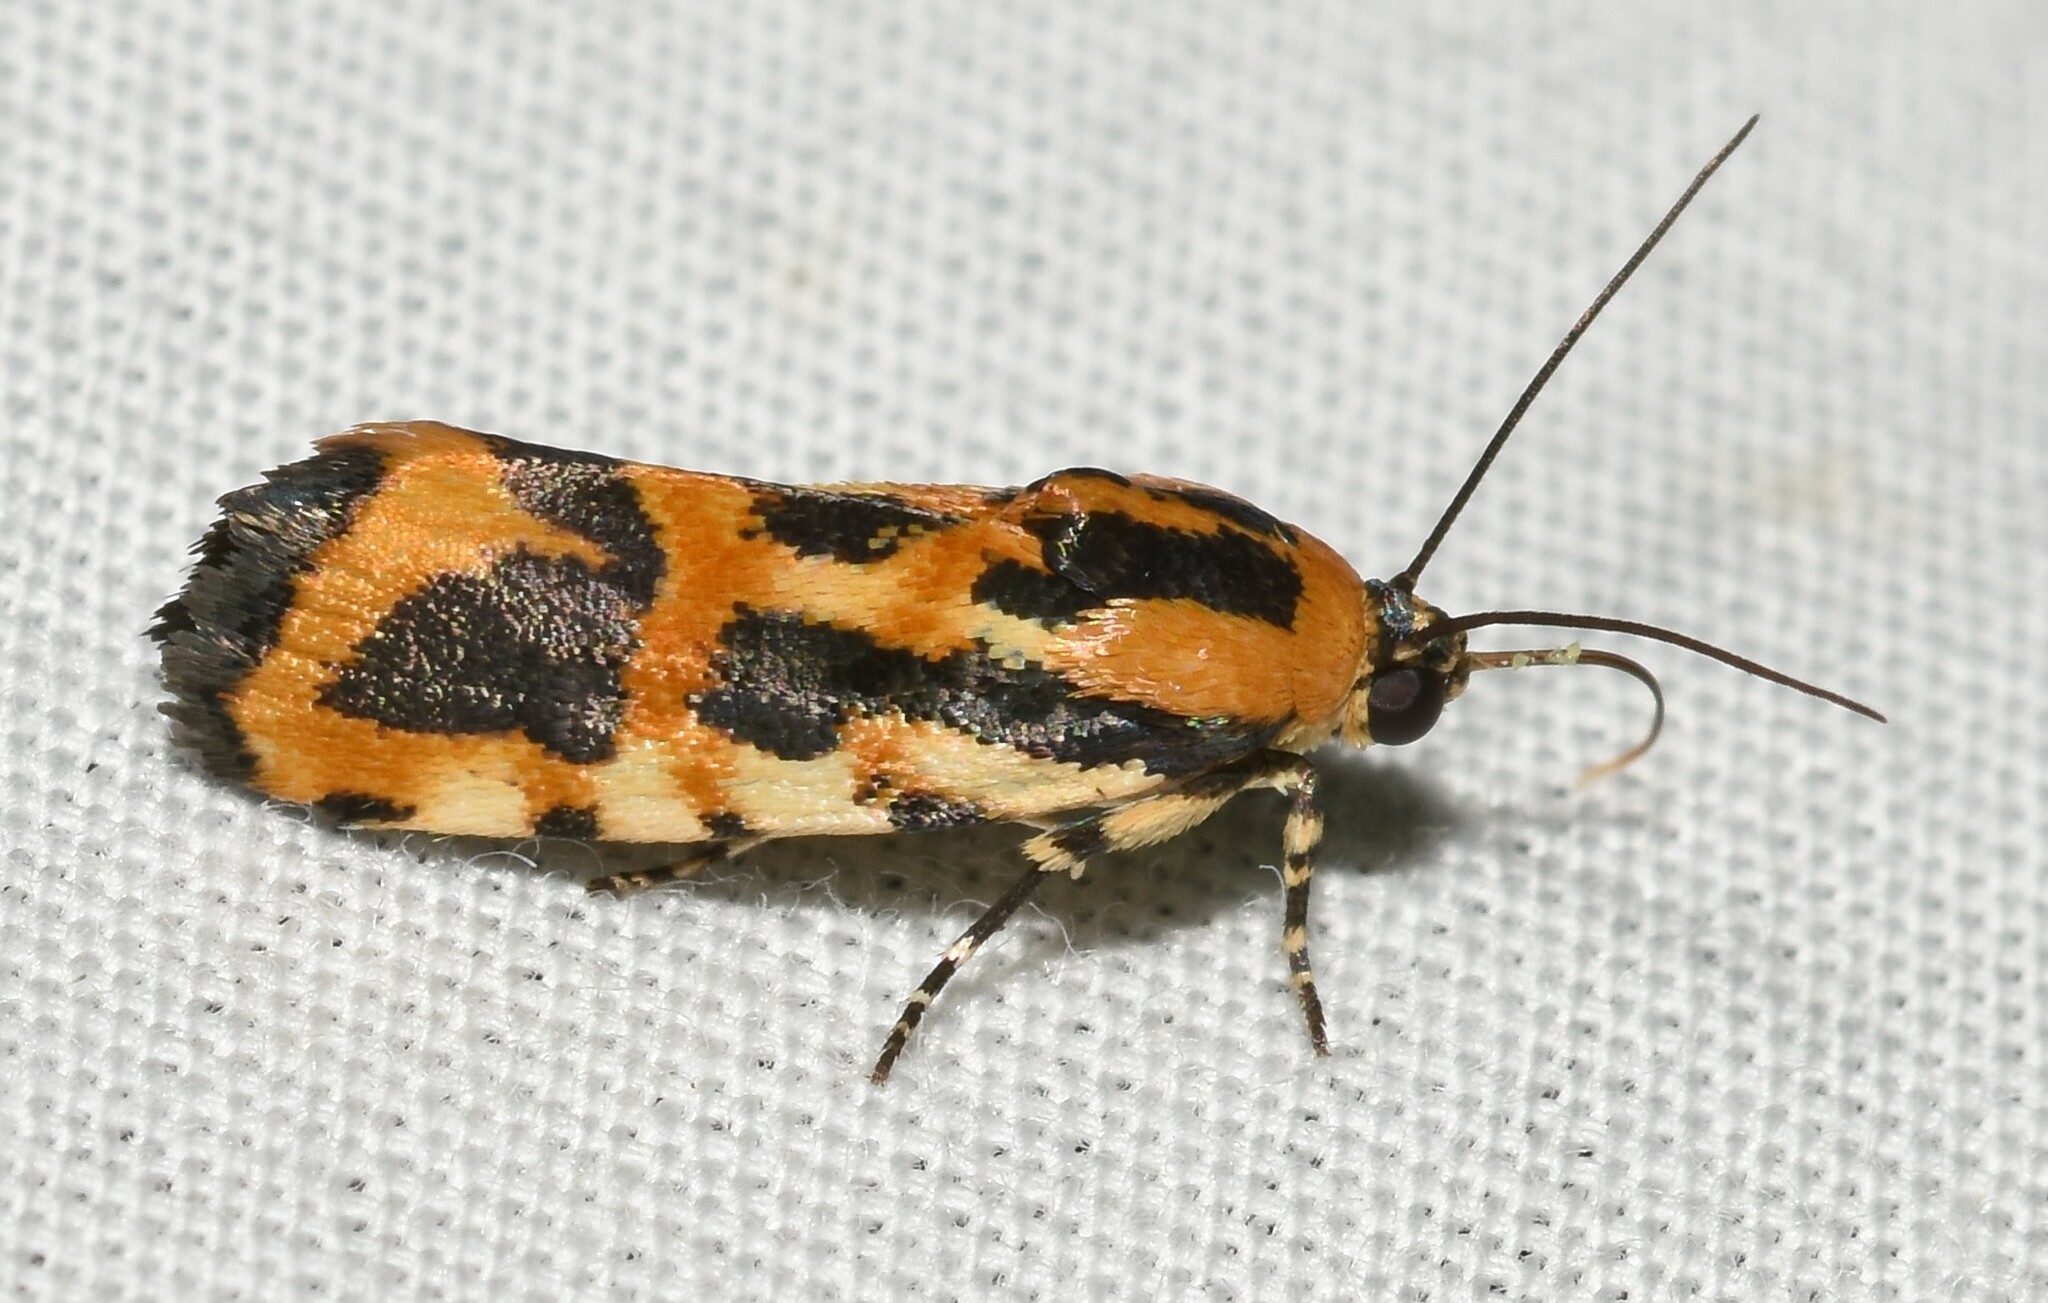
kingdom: Animalia
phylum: Arthropoda
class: Insecta
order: Lepidoptera
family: Noctuidae
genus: Acontia
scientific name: Acontia leo
